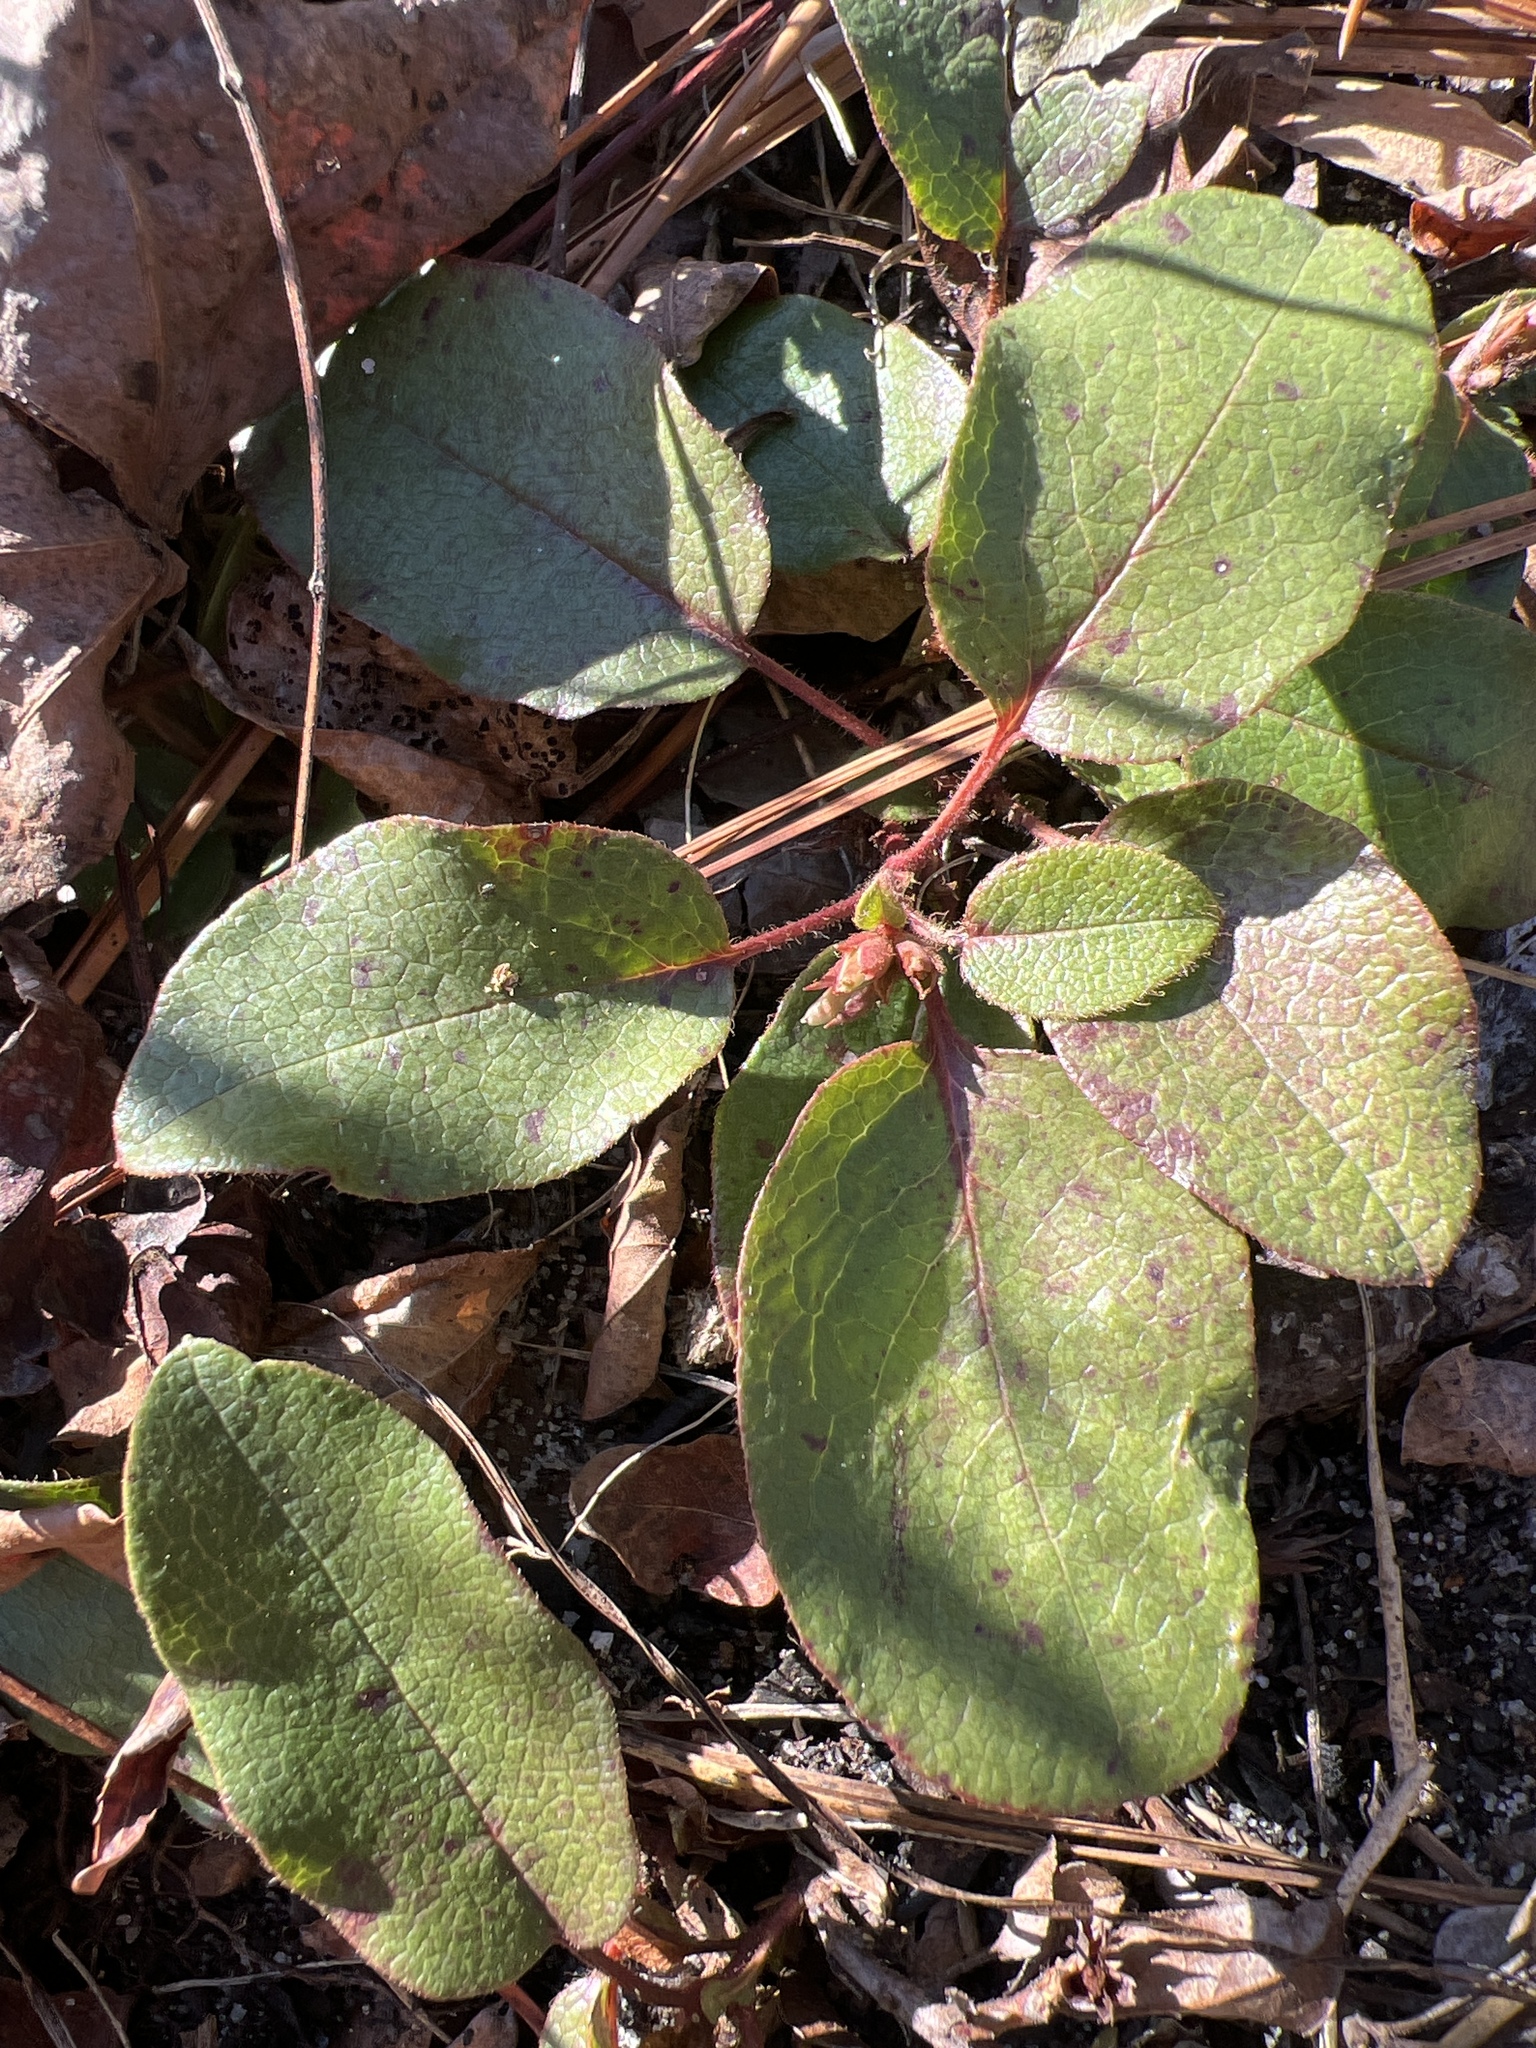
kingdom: Plantae
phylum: Tracheophyta
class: Magnoliopsida
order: Ericales
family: Ericaceae
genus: Epigaea
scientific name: Epigaea repens
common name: Gravelroot
